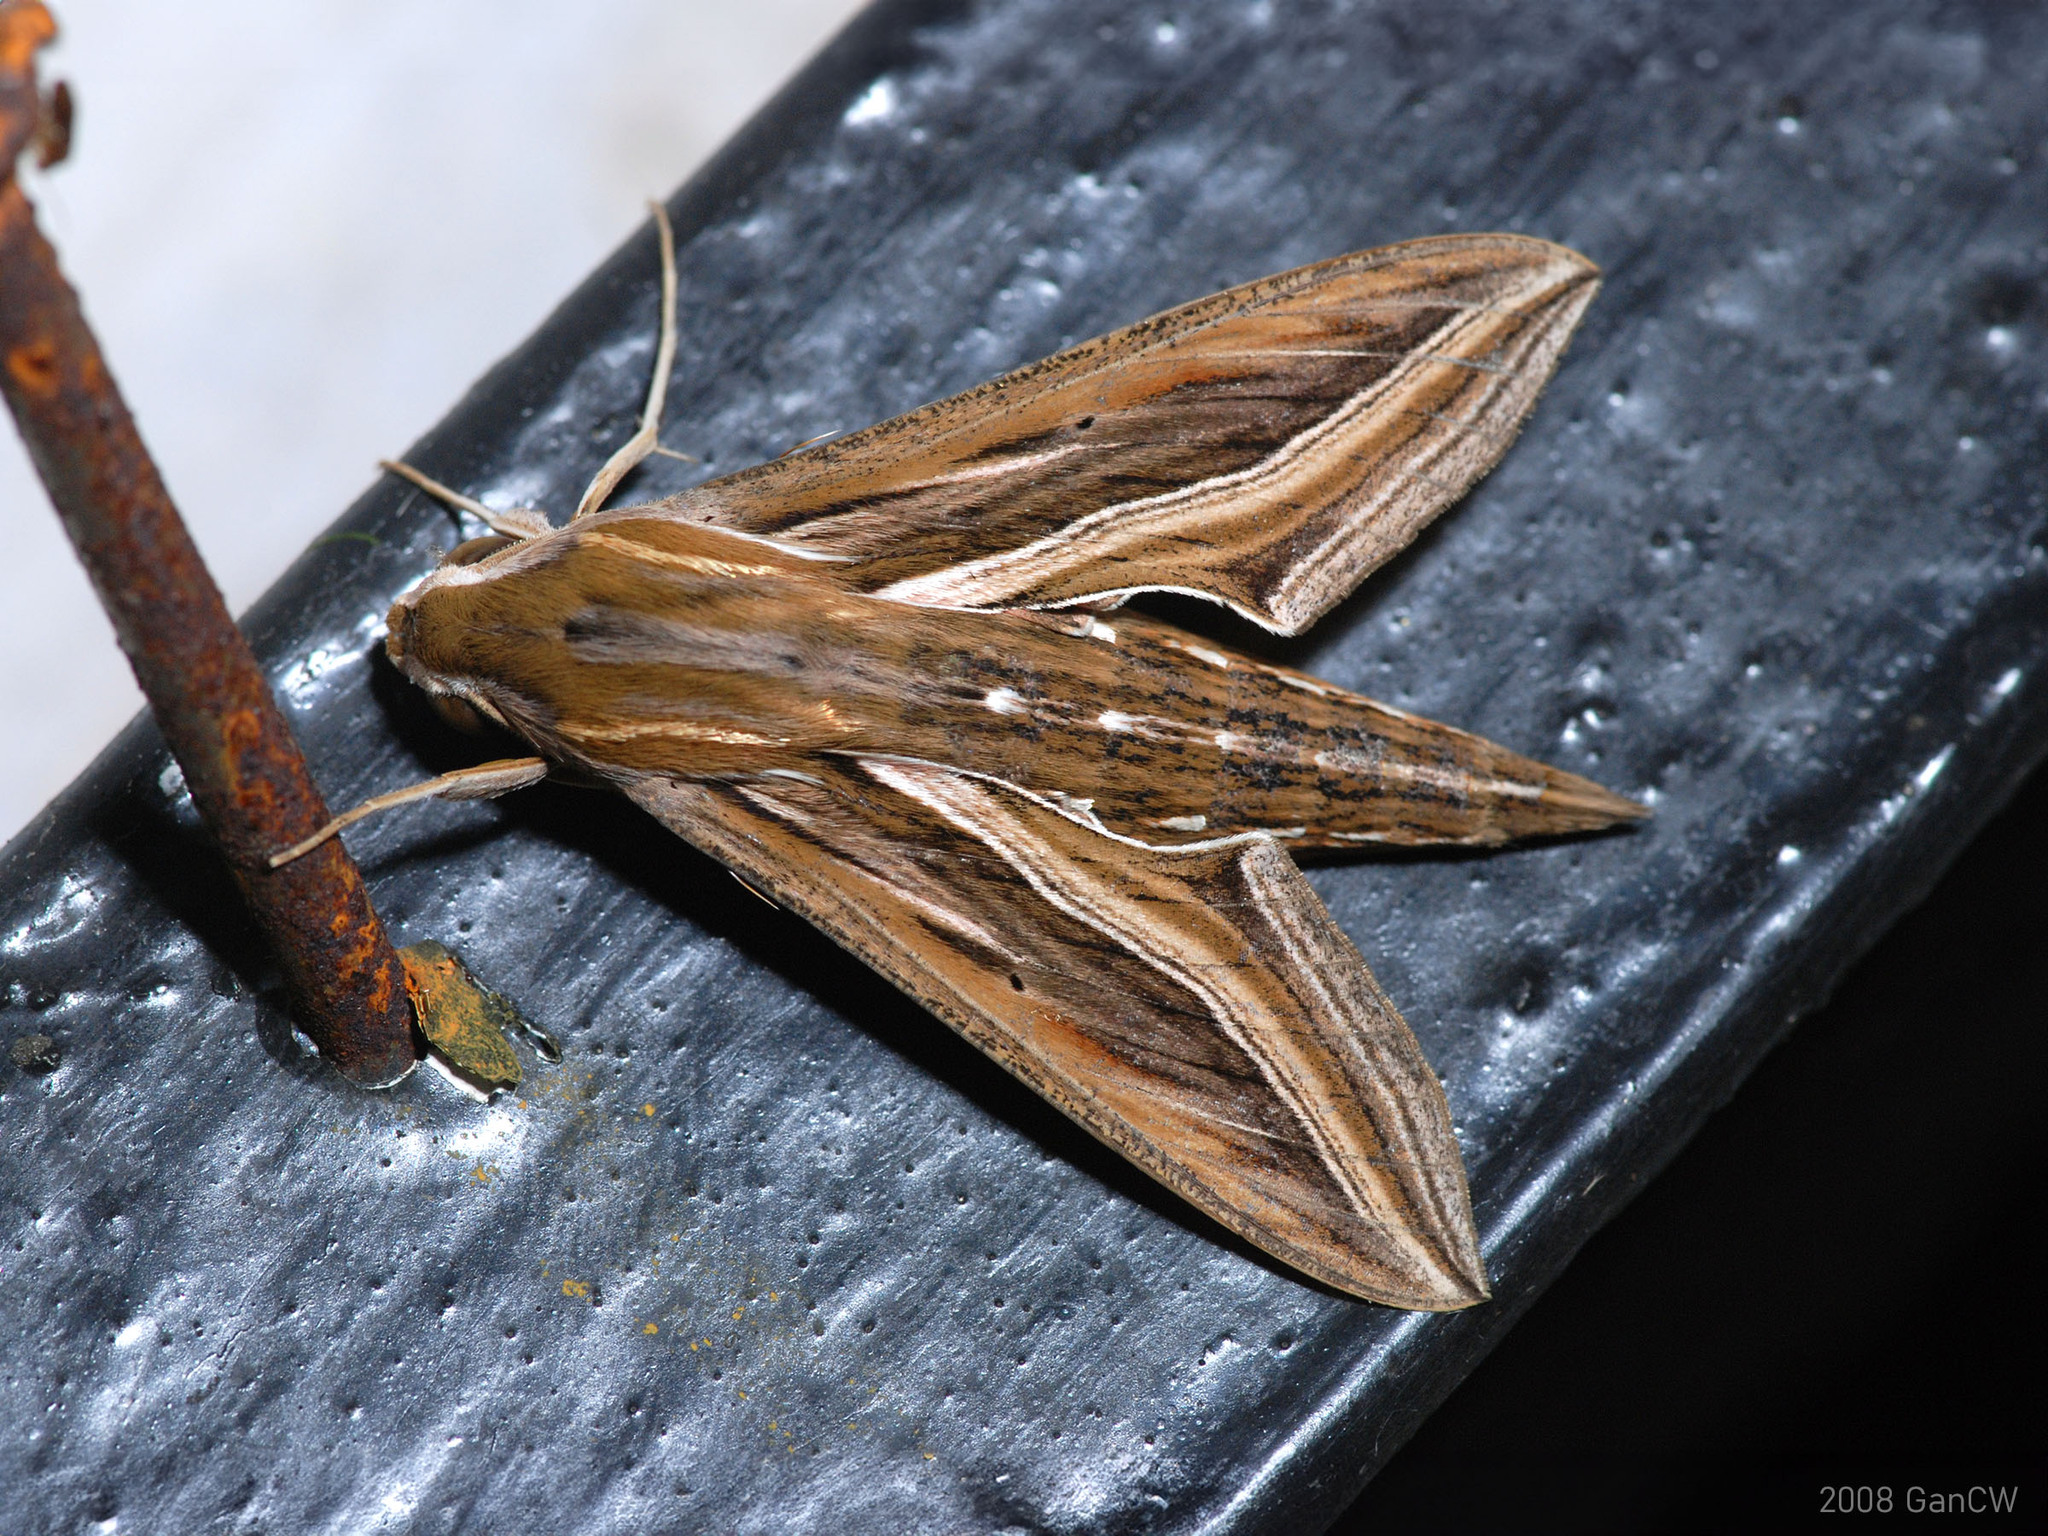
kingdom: Animalia
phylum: Arthropoda
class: Insecta
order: Lepidoptera
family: Sphingidae
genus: Hippotion
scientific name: Hippotion celerio
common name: Silver-striped hawk-moth
